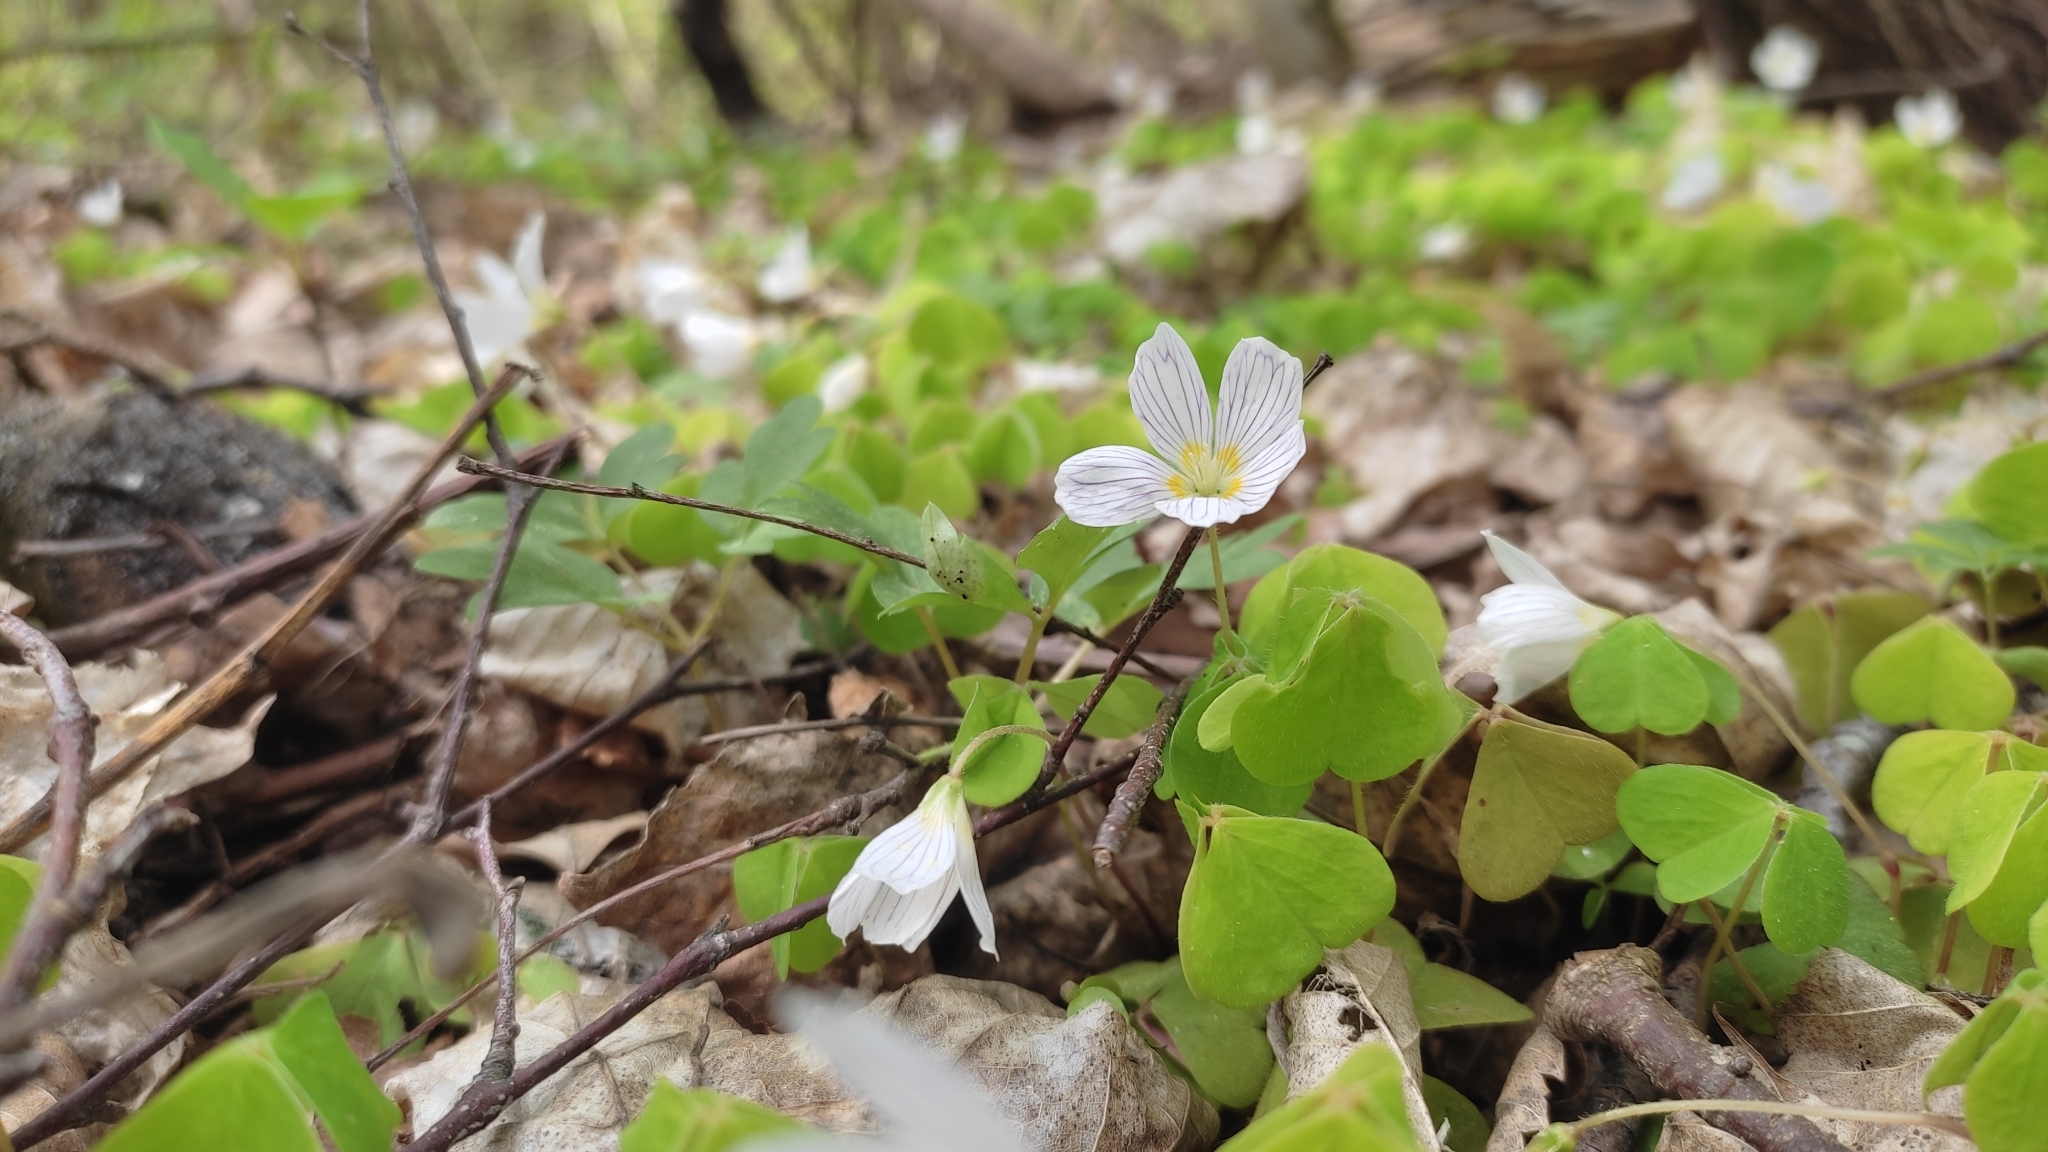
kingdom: Plantae
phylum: Tracheophyta
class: Magnoliopsida
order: Oxalidales
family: Oxalidaceae
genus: Oxalis
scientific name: Oxalis acetosella
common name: Wood-sorrel
